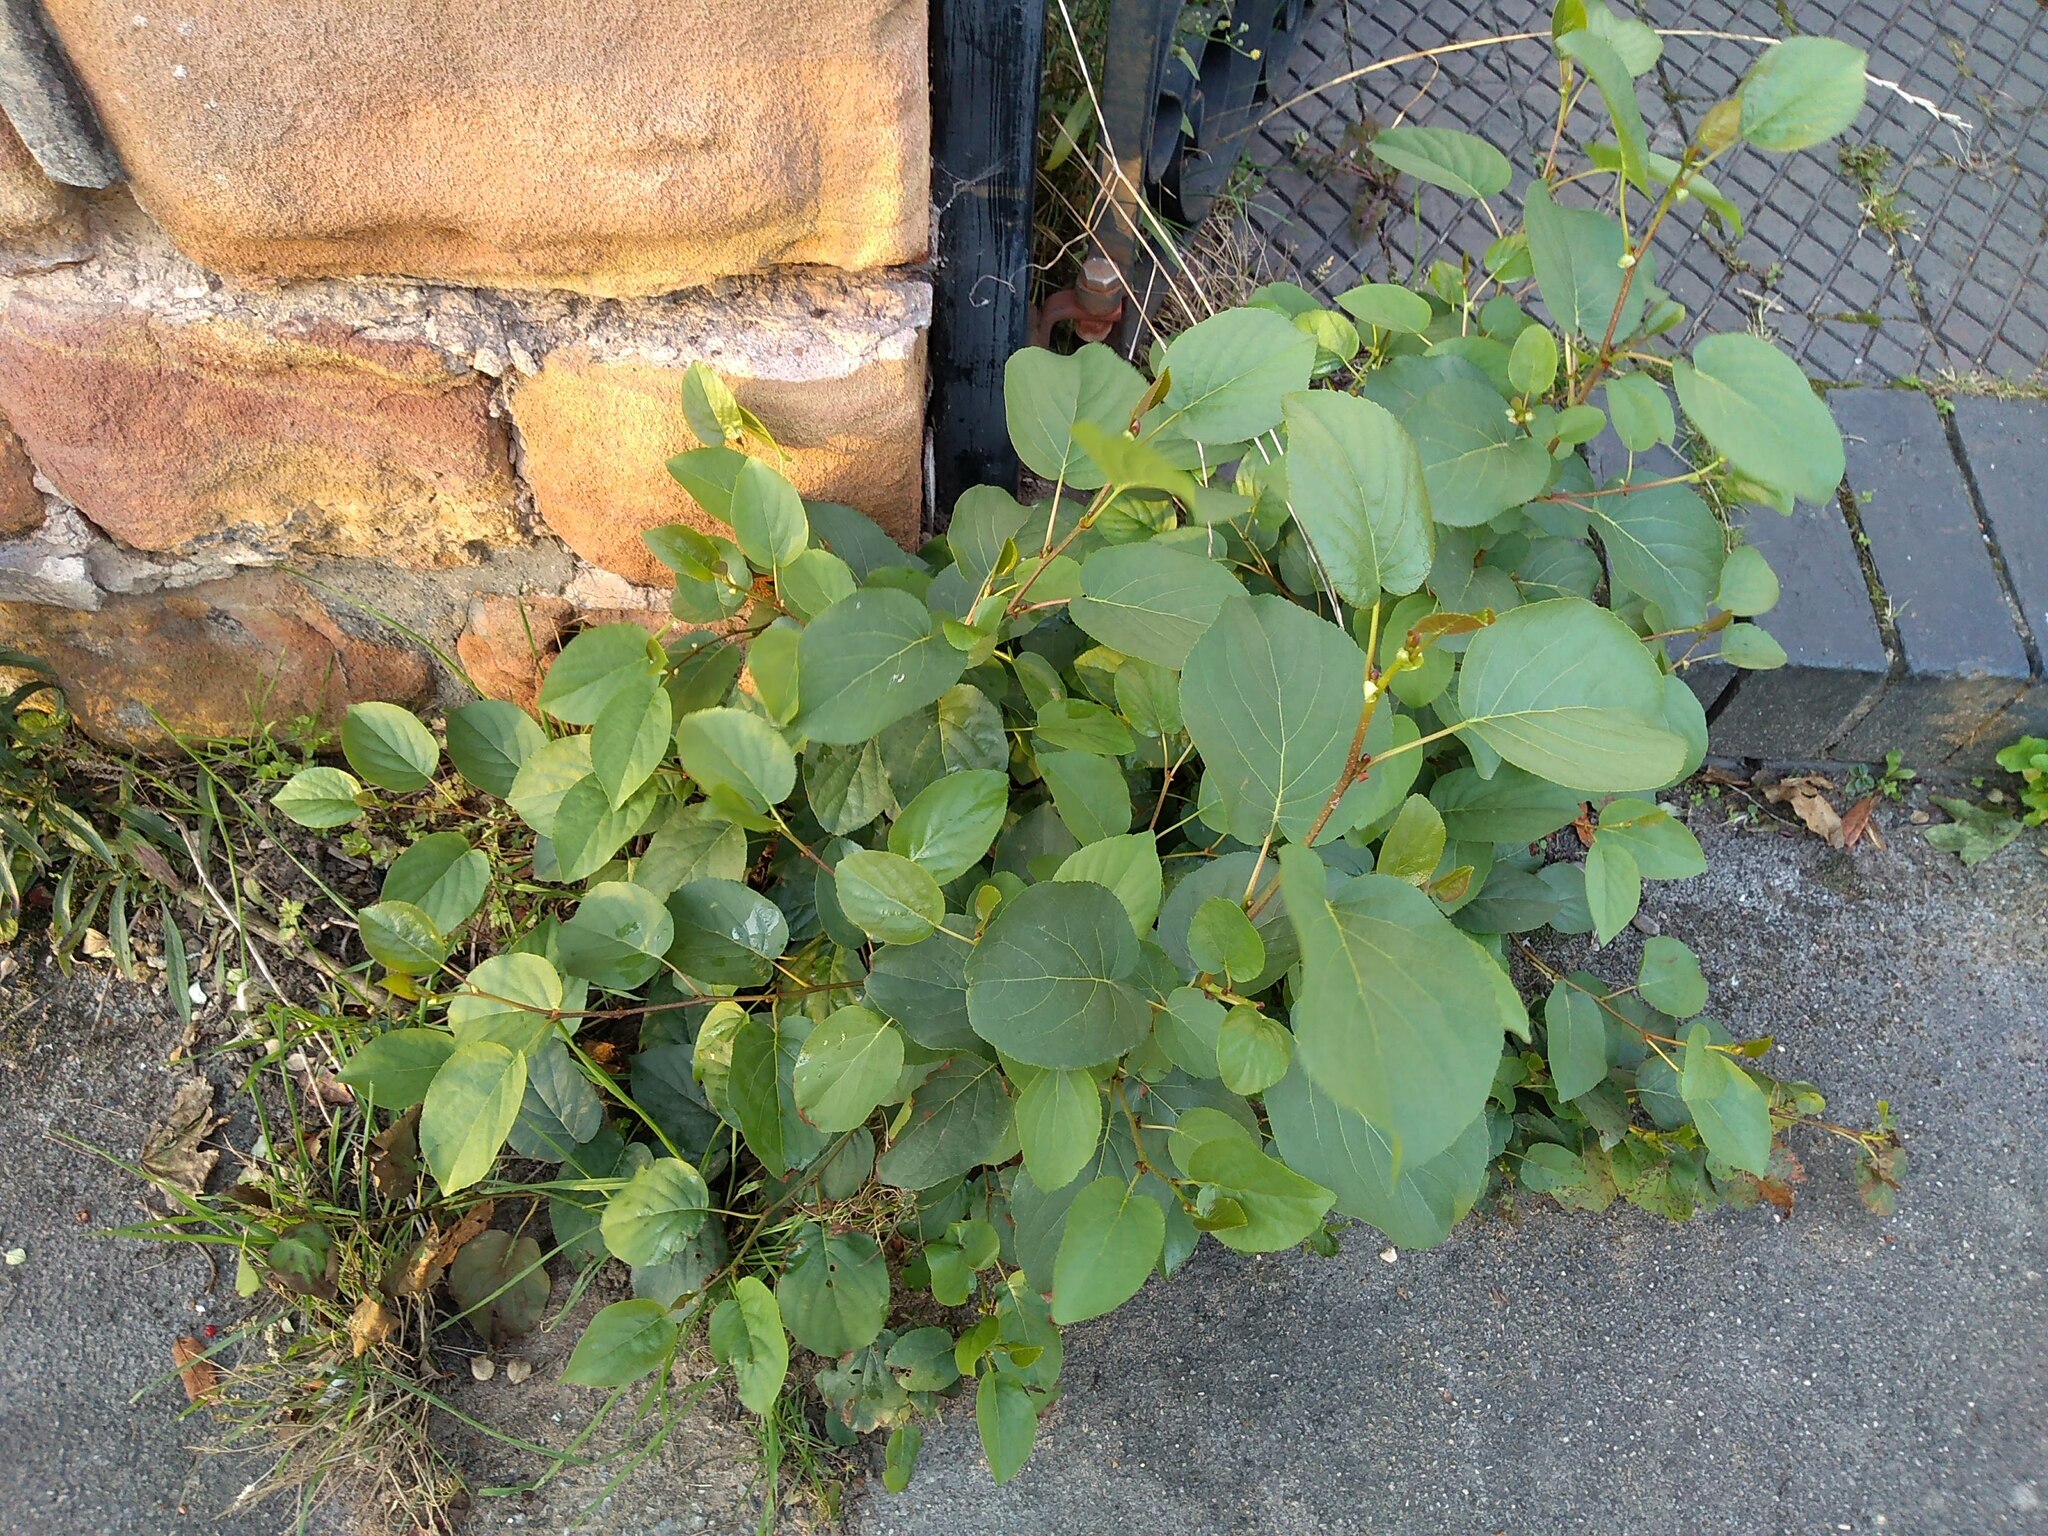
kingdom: Plantae
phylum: Tracheophyta
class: Magnoliopsida
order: Fagales
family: Betulaceae
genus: Alnus
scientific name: Alnus cordata
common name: Italian alder
